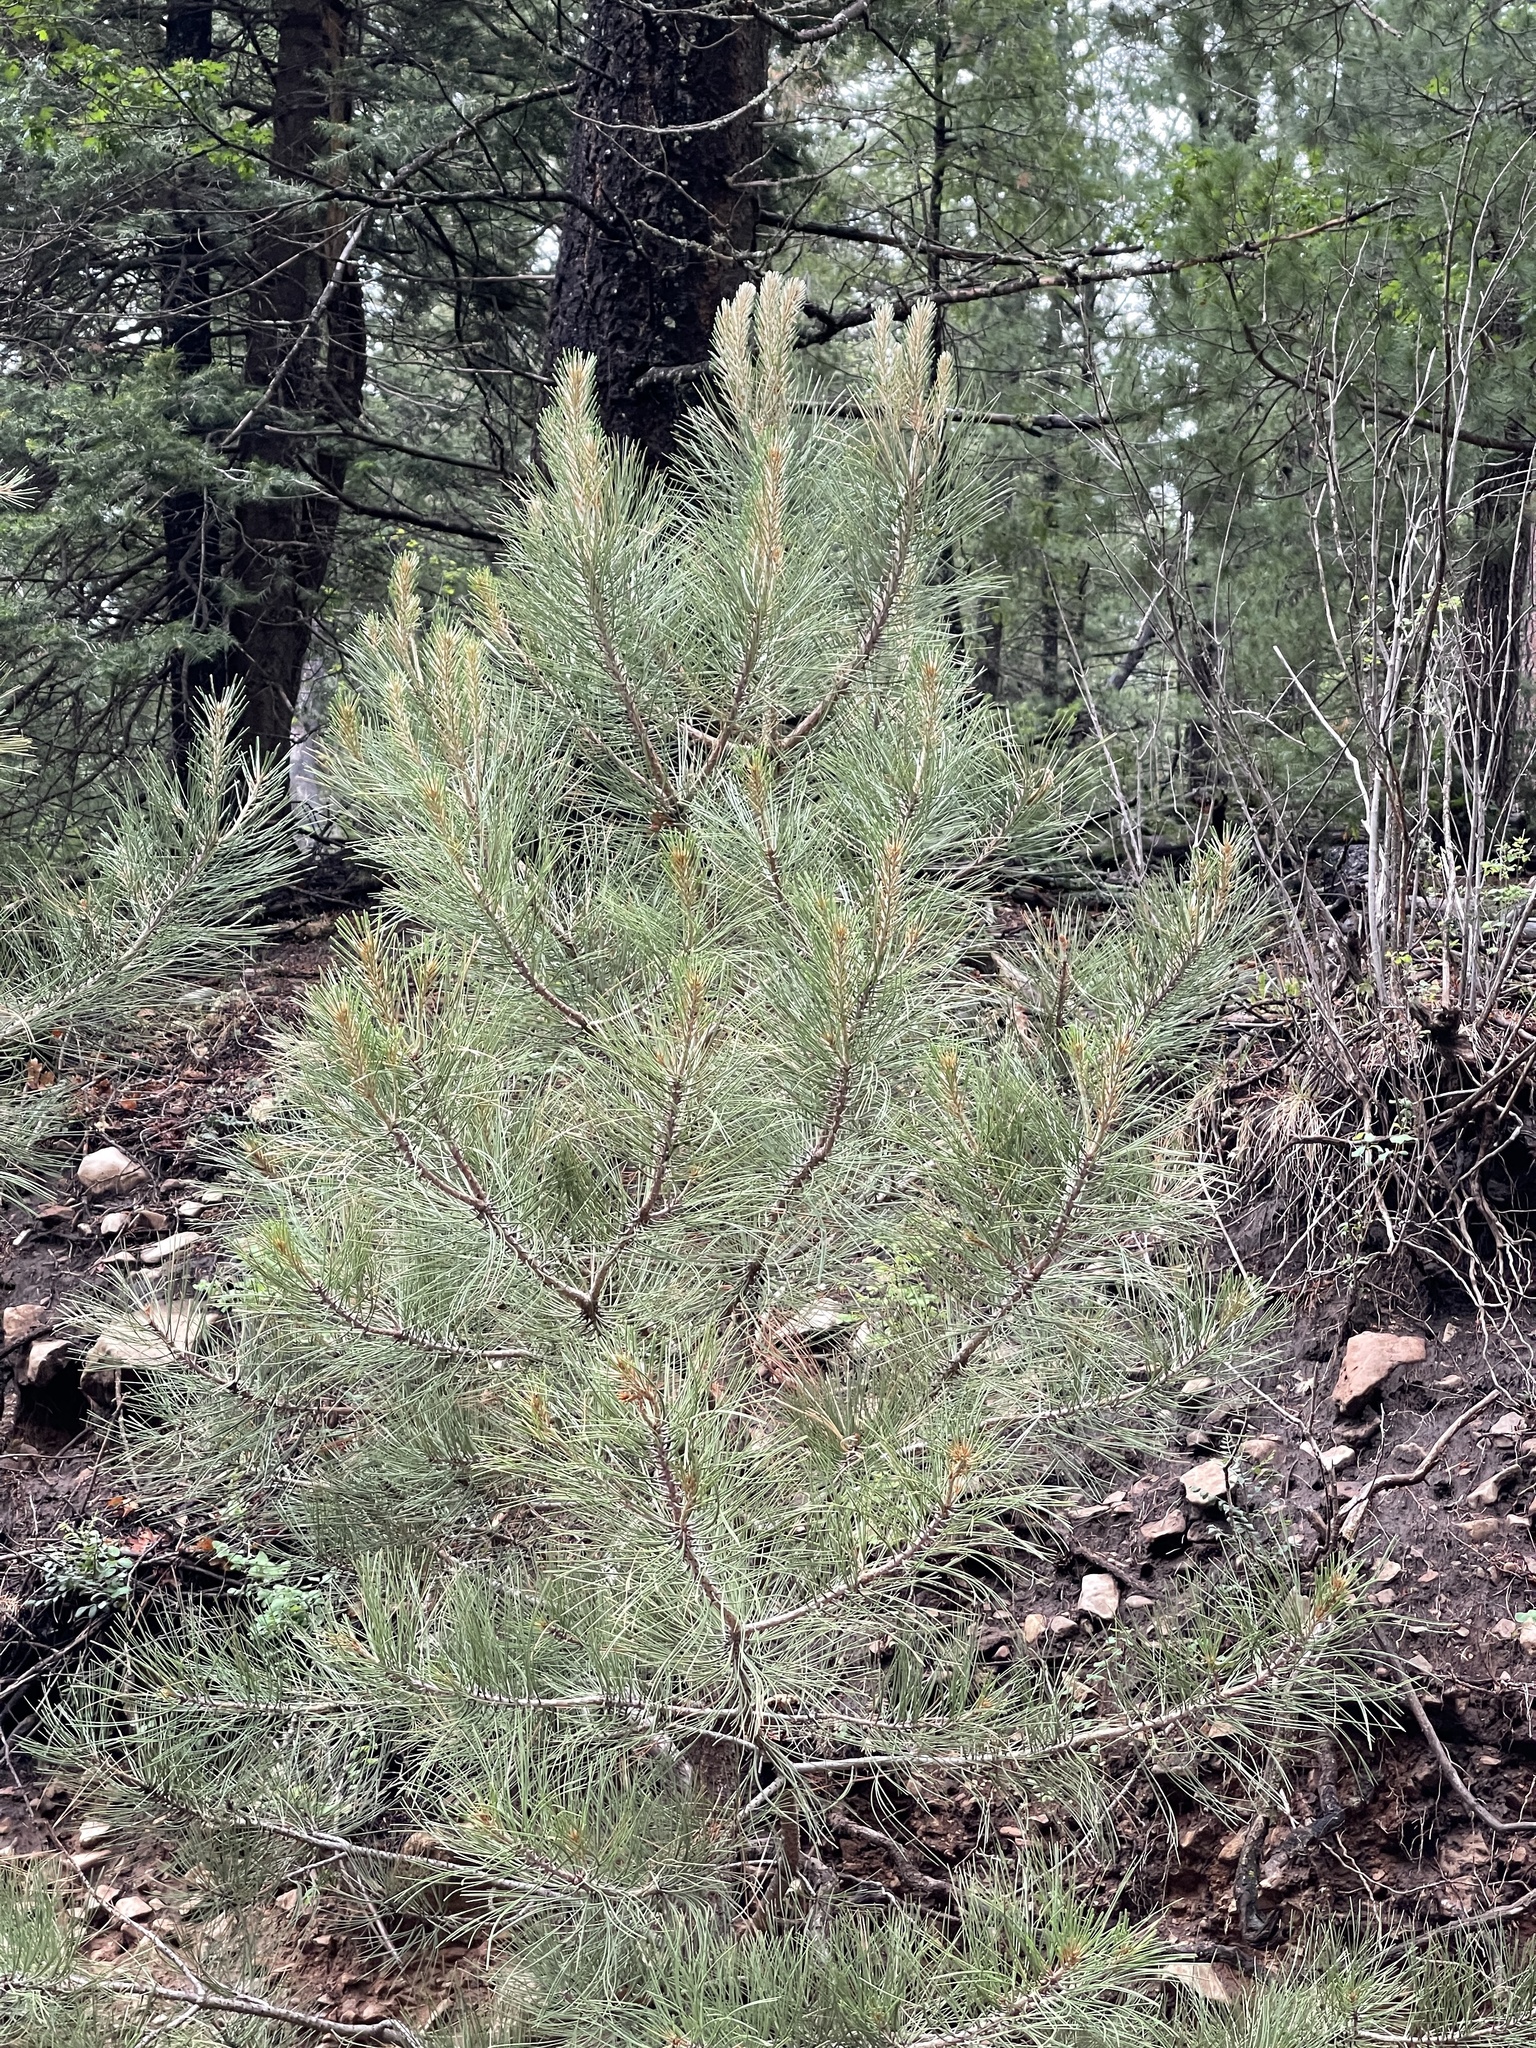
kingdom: Plantae
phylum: Tracheophyta
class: Pinopsida
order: Pinales
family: Pinaceae
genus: Pinus
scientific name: Pinus ponderosa
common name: Western yellow-pine
